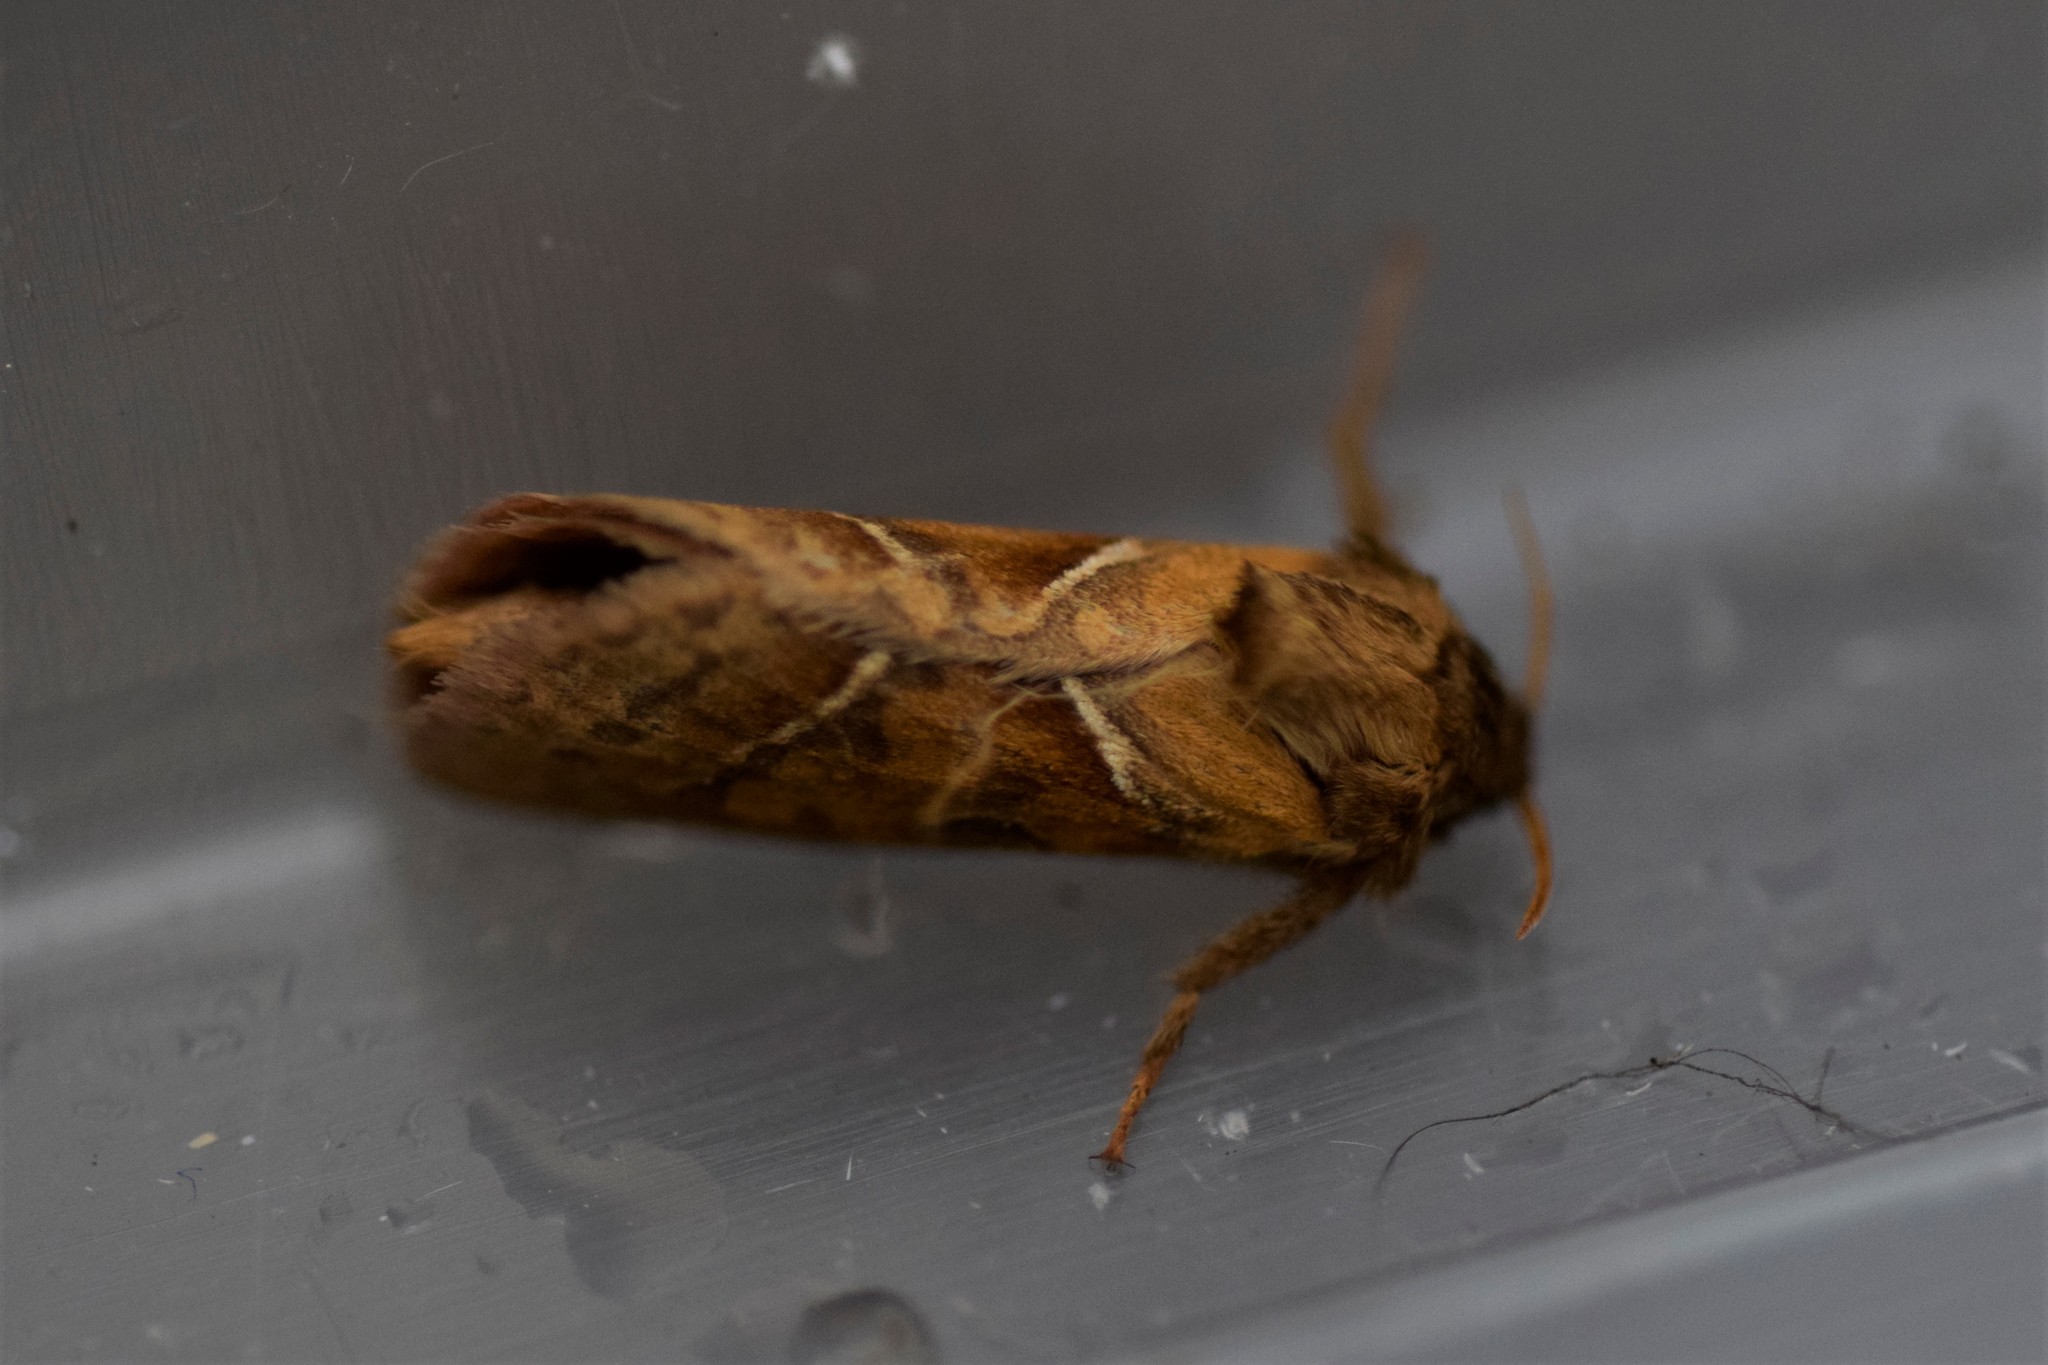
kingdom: Animalia
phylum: Arthropoda
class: Insecta
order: Lepidoptera
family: Hepialidae
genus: Triodia
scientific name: Triodia sylvina
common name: Orange swift
